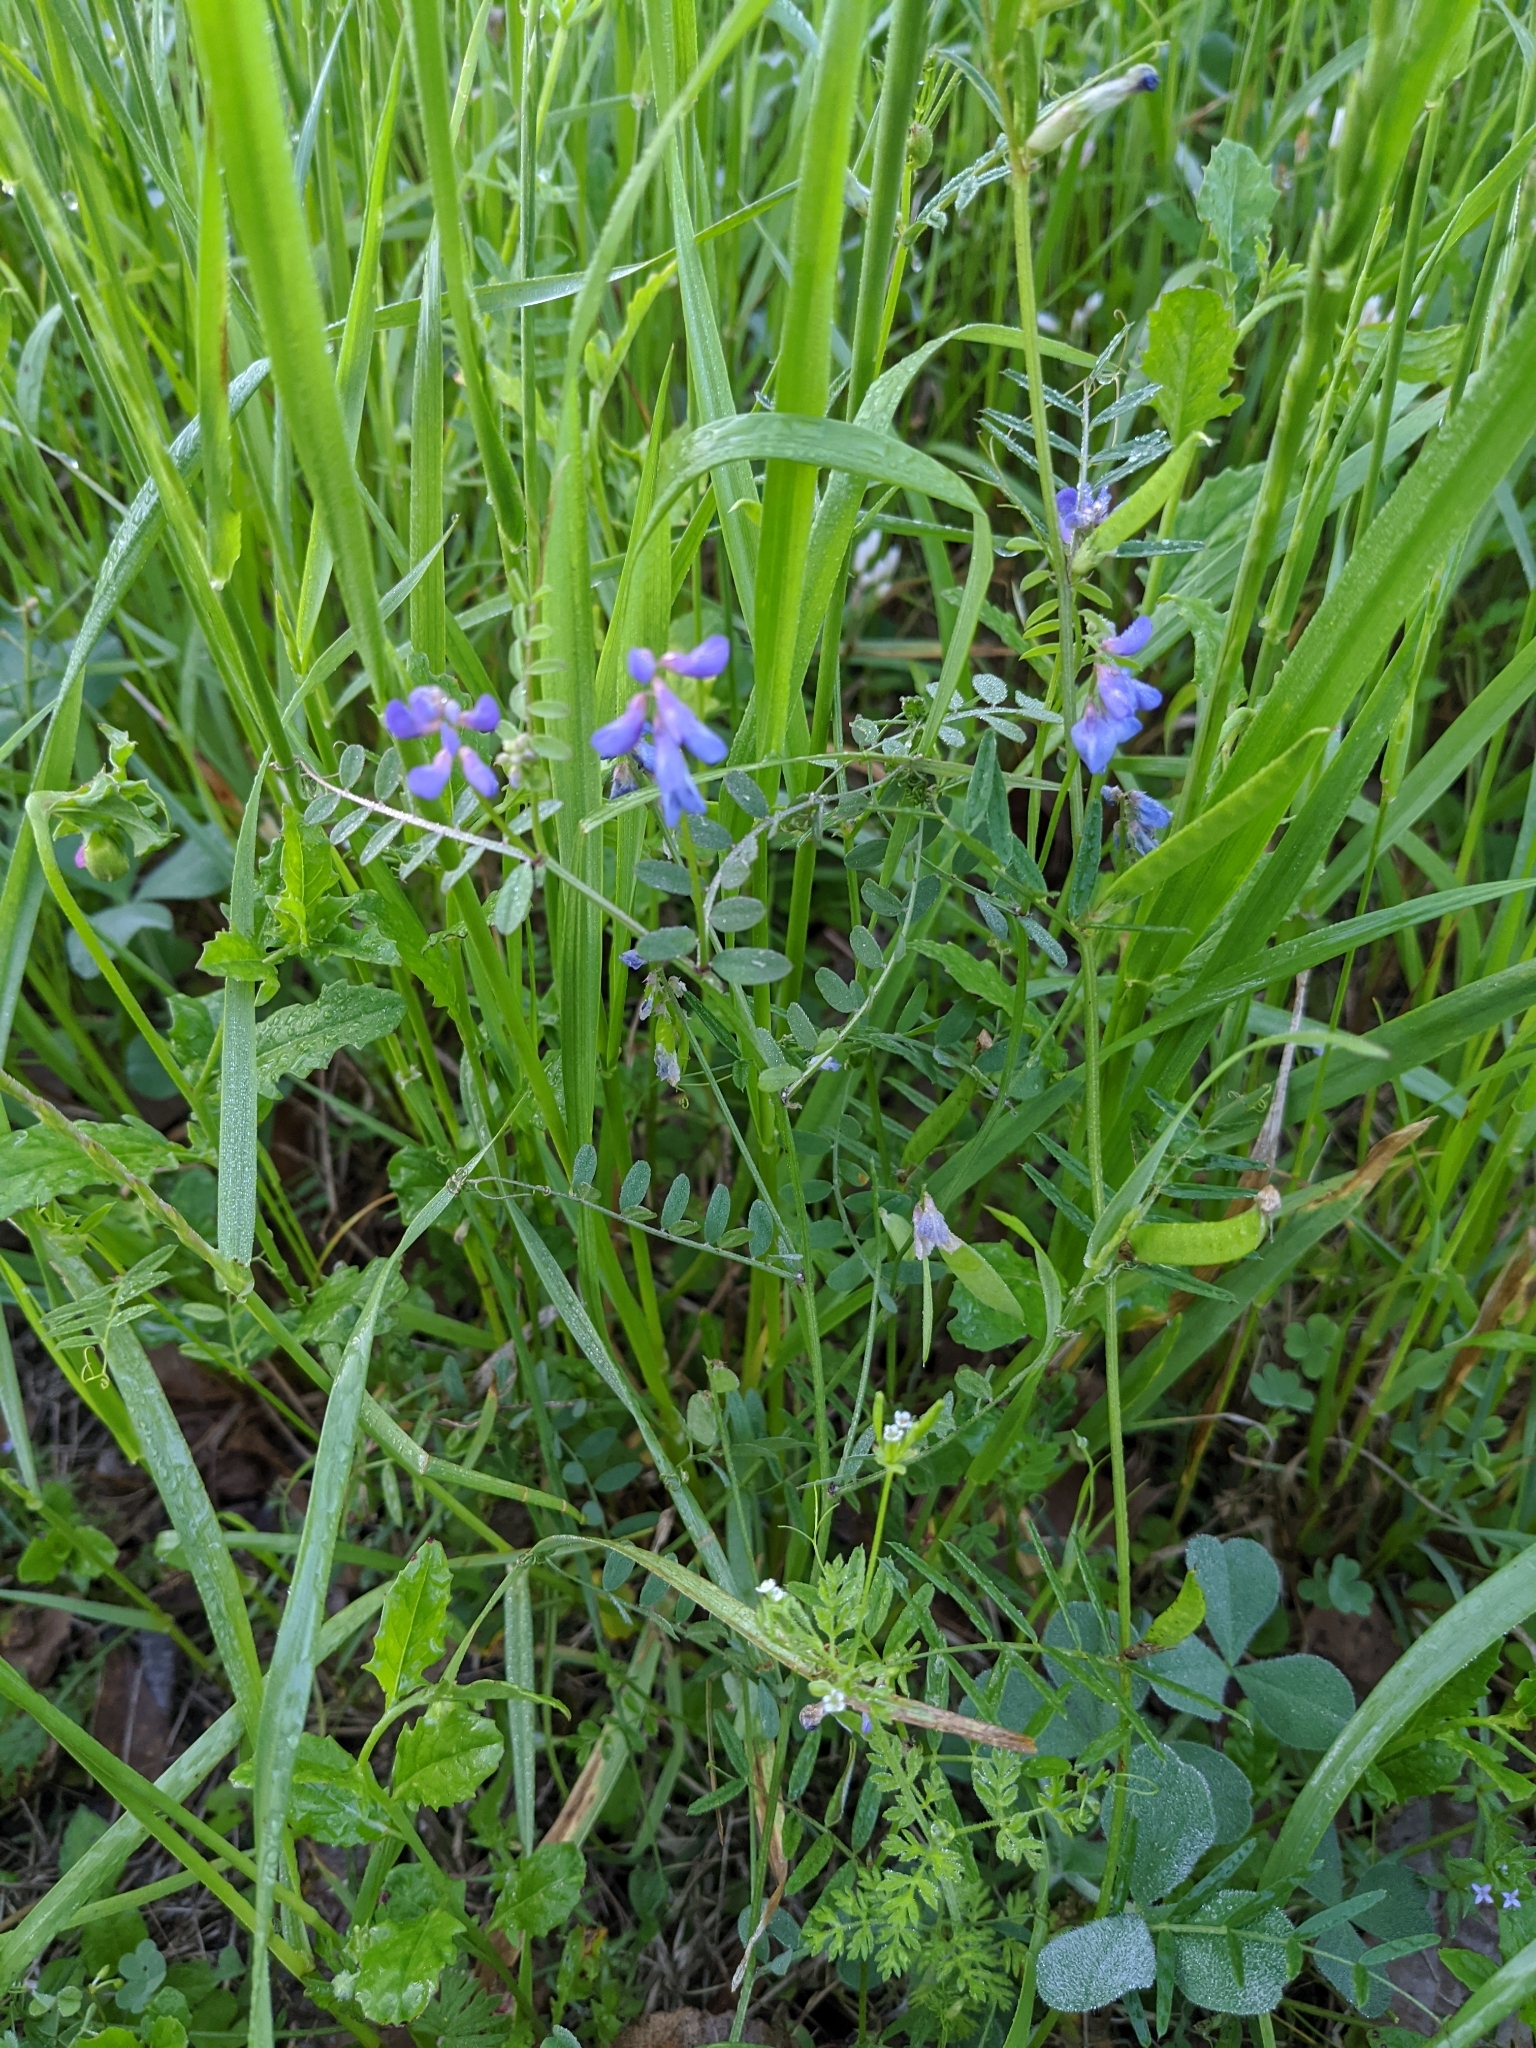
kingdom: Plantae
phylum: Tracheophyta
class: Magnoliopsida
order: Fabales
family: Fabaceae
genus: Vicia
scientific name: Vicia ludoviciana
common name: Louisiana vetch
